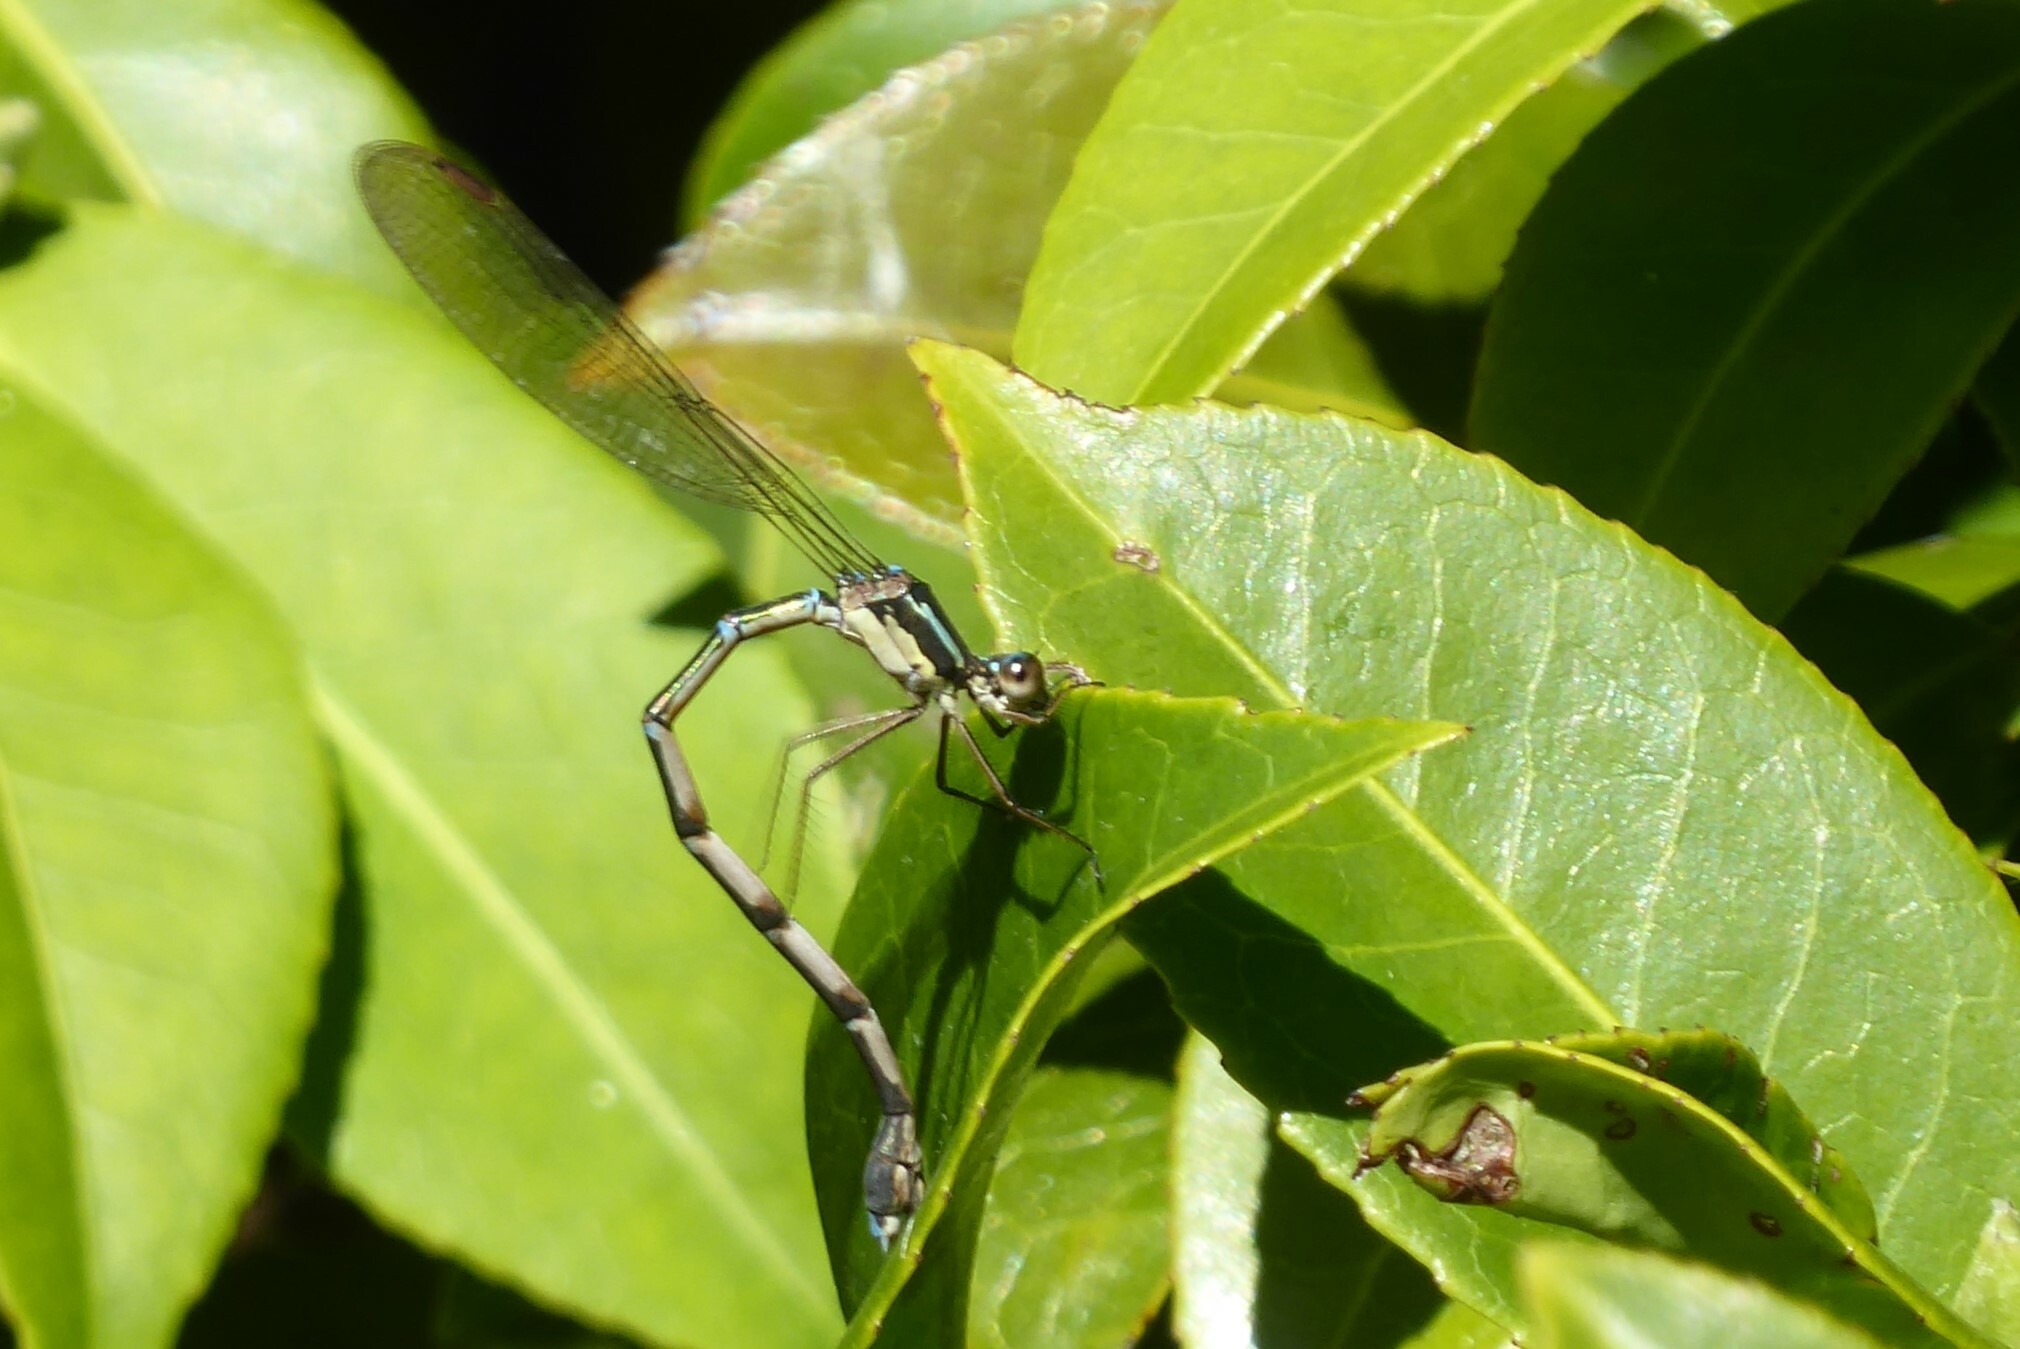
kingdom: Animalia
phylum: Arthropoda
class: Insecta
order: Odonata
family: Lestidae
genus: Austrolestes
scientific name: Austrolestes colensonis
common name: Blue damselfly
